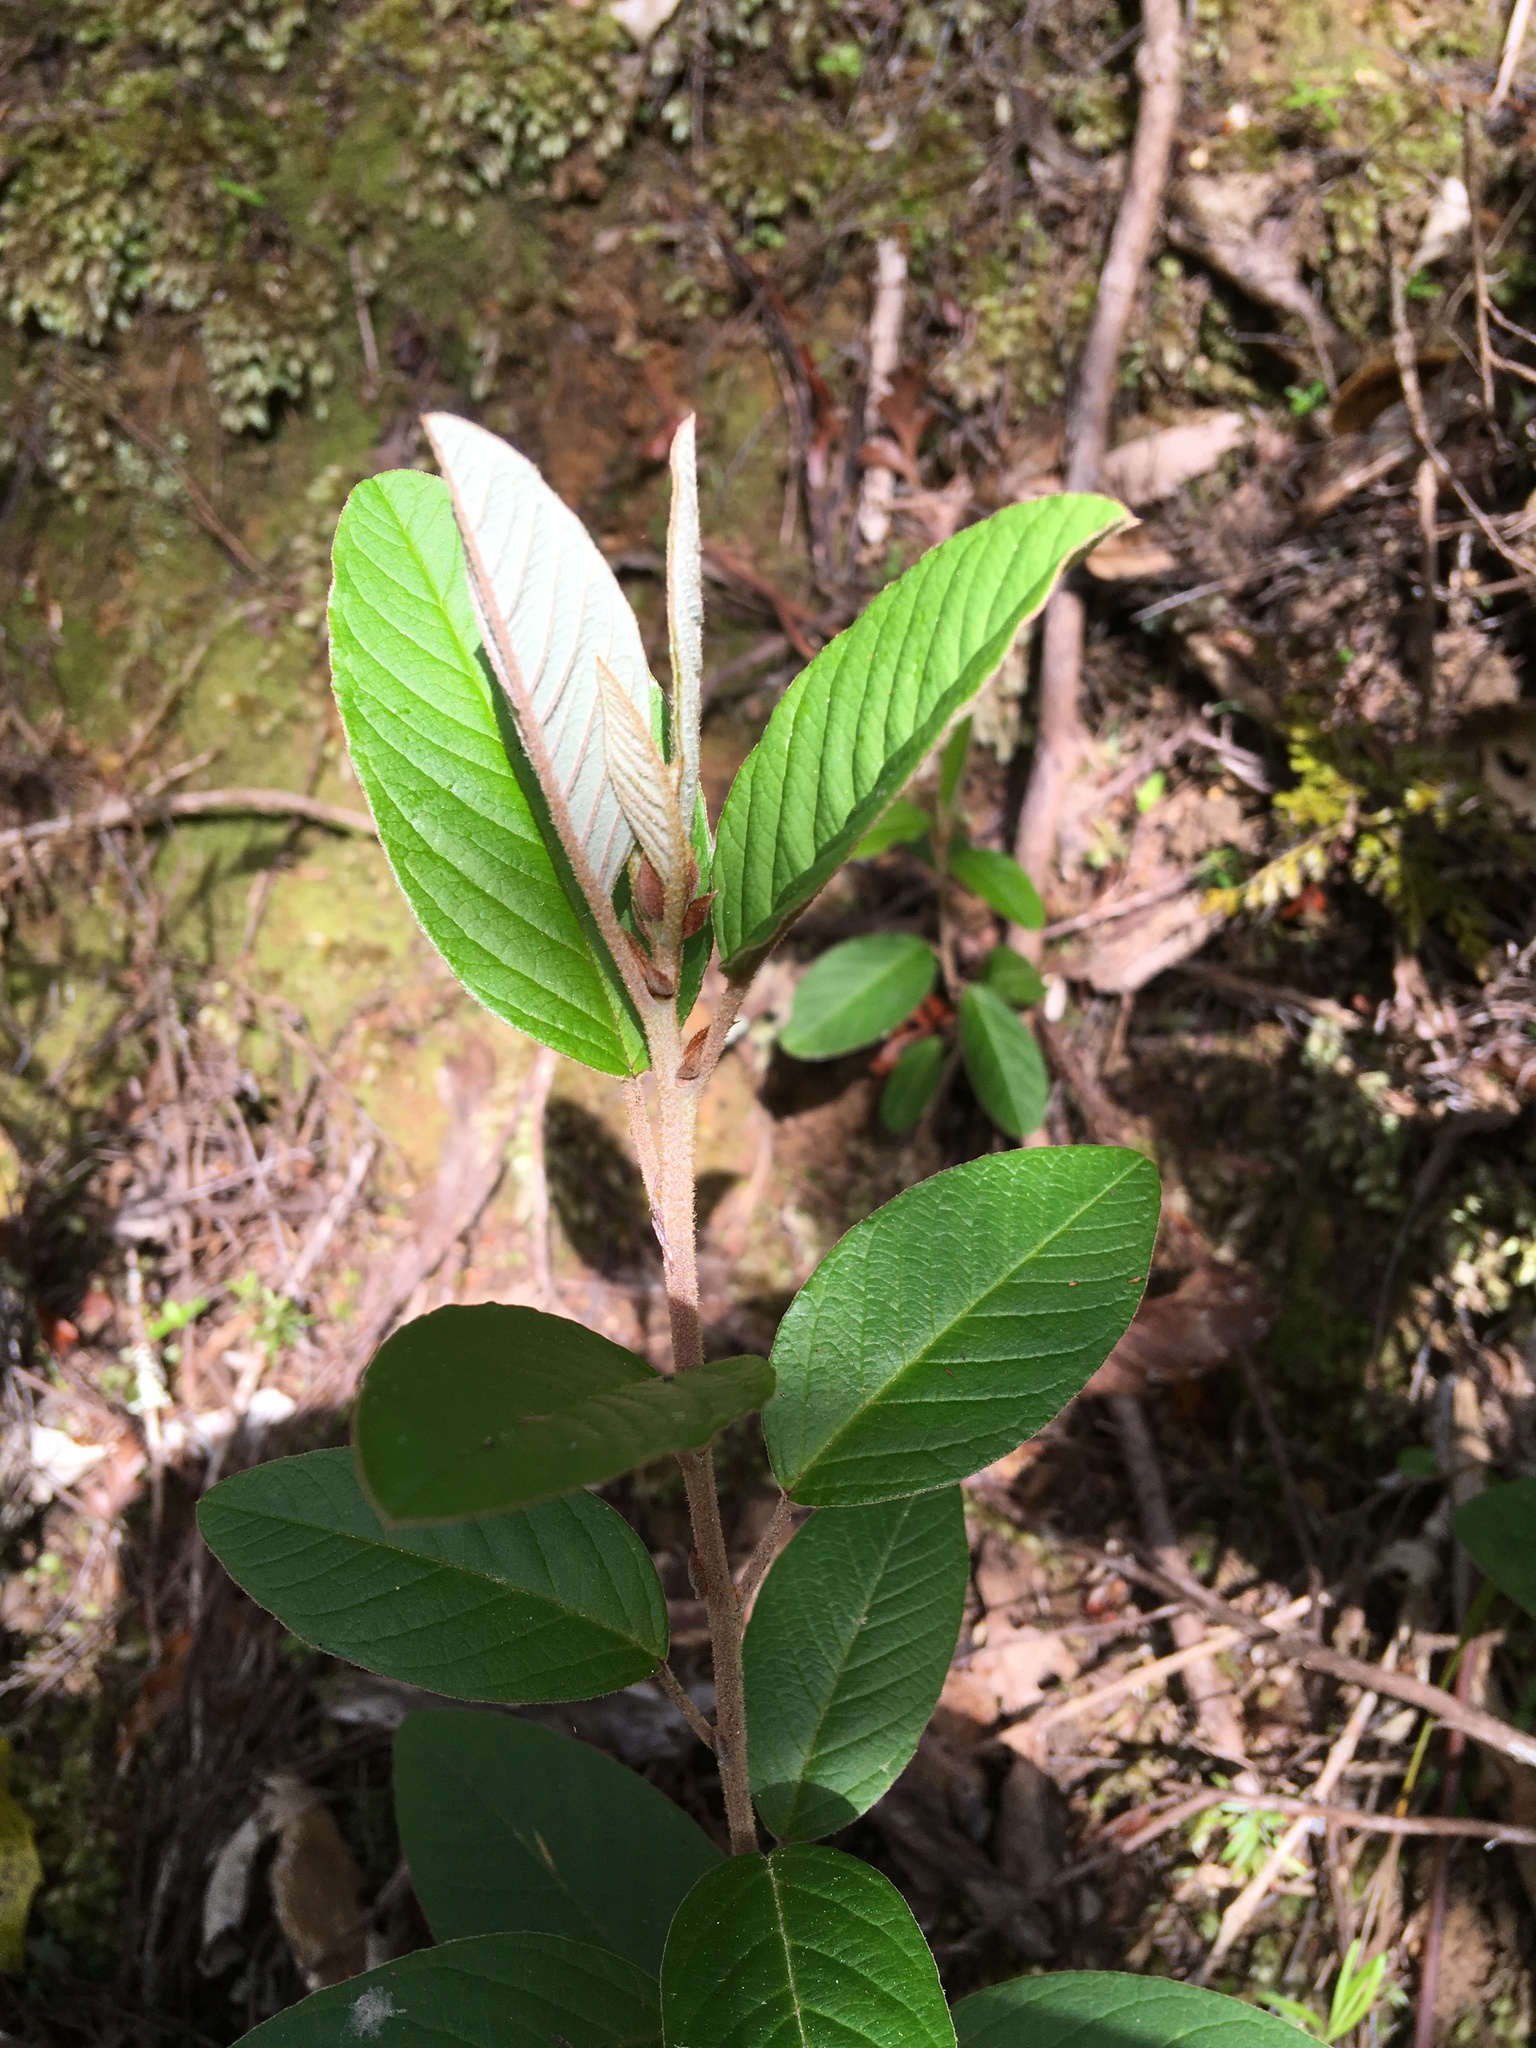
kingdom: Plantae
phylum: Tracheophyta
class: Magnoliopsida
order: Rosales
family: Rhamnaceae
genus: Pomaderris
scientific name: Pomaderris kumeraho
